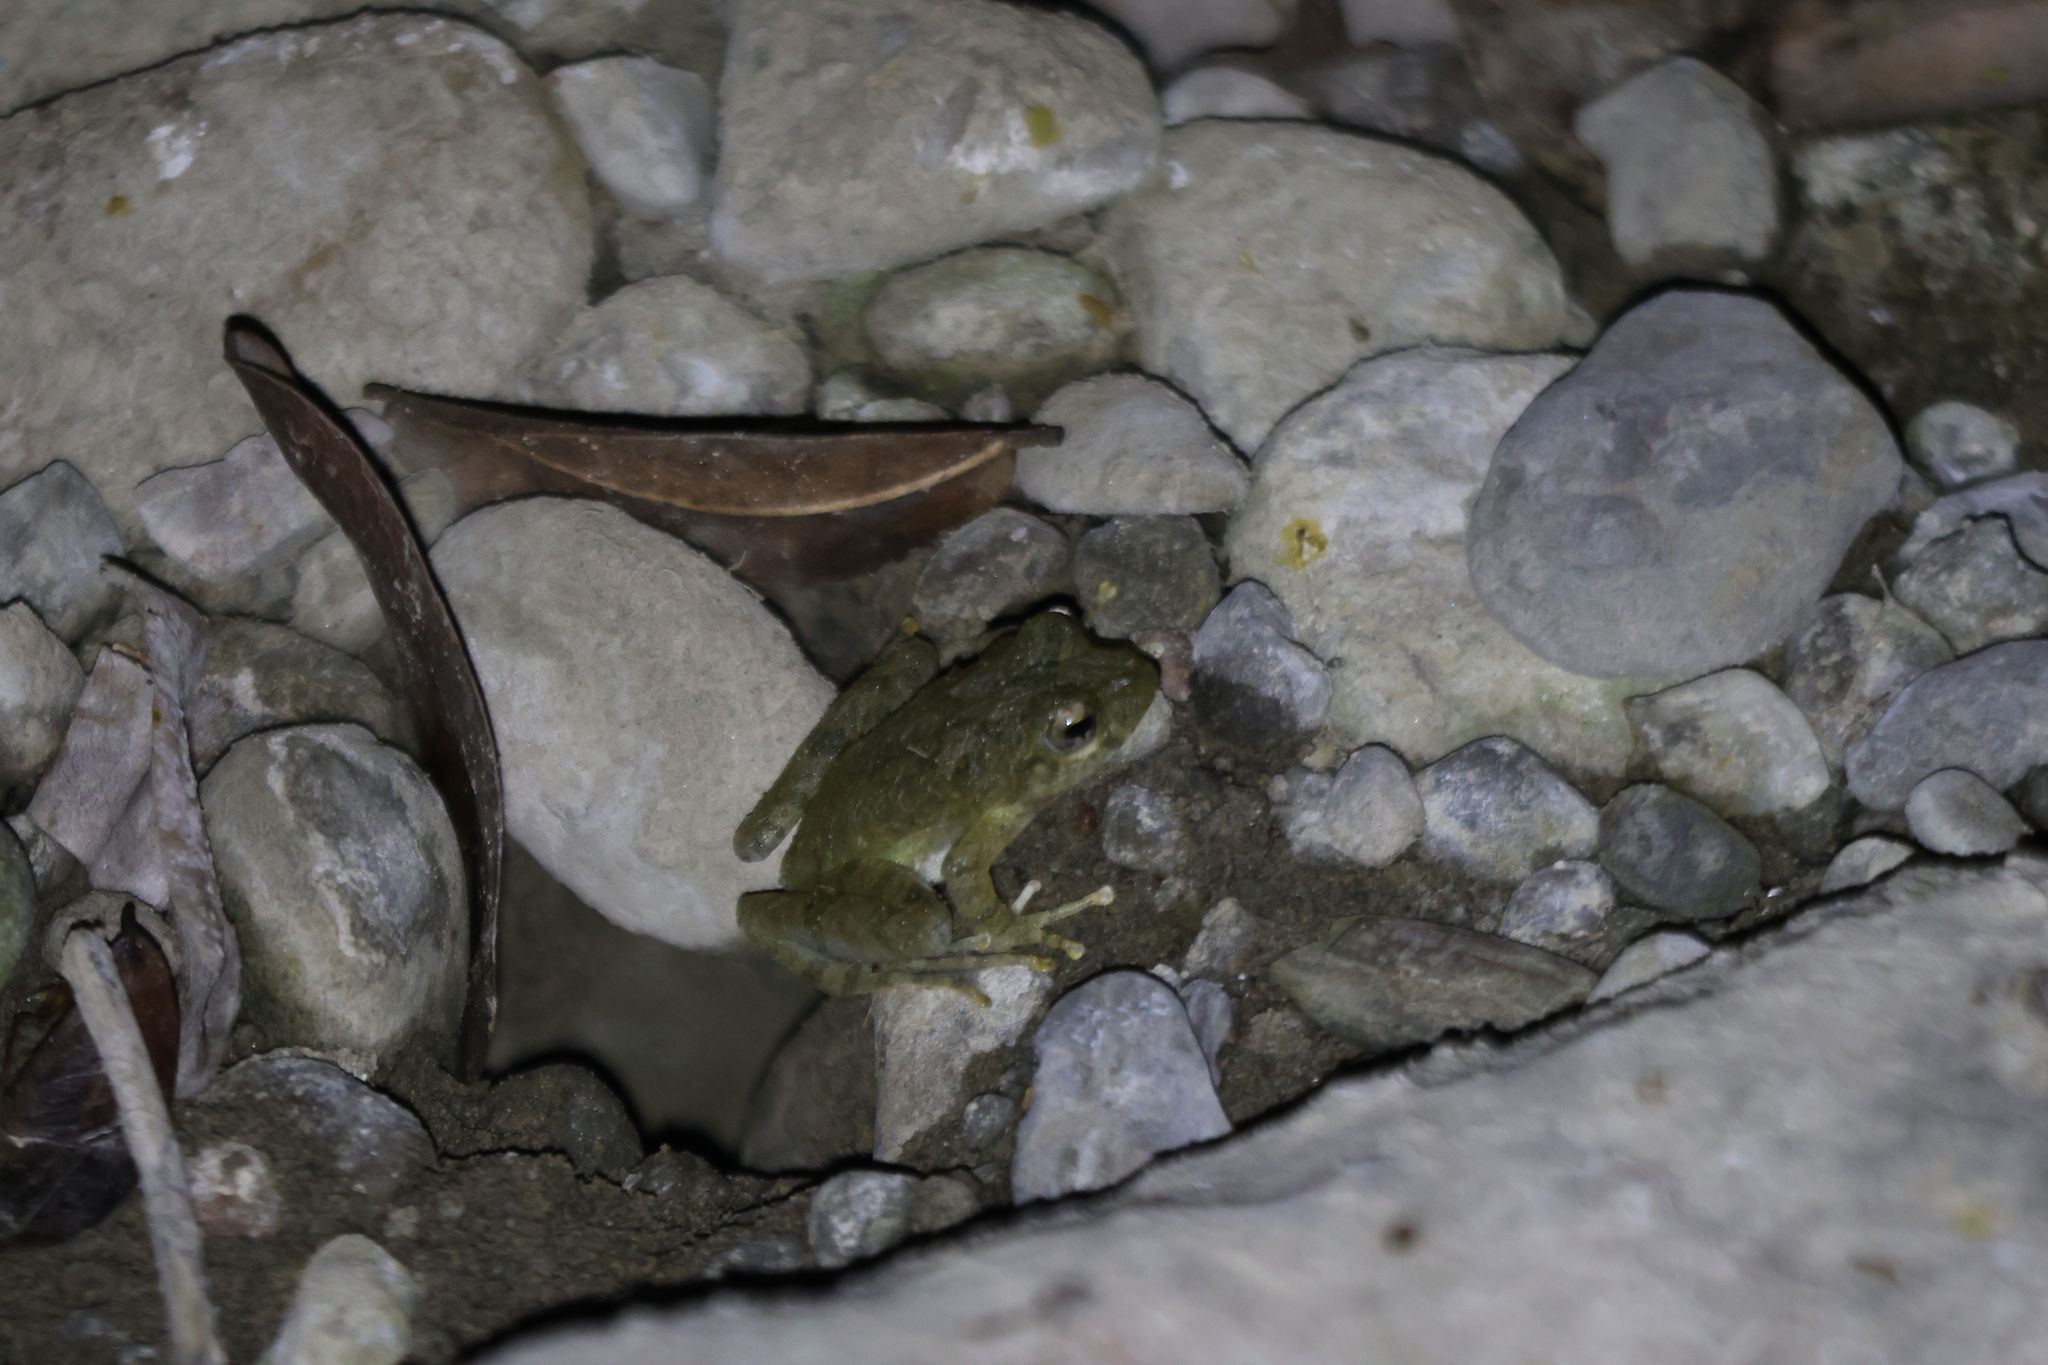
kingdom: Animalia
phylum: Chordata
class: Amphibia
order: Anura
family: Rhacophoridae
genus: Buergeria
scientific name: Buergeria otai
